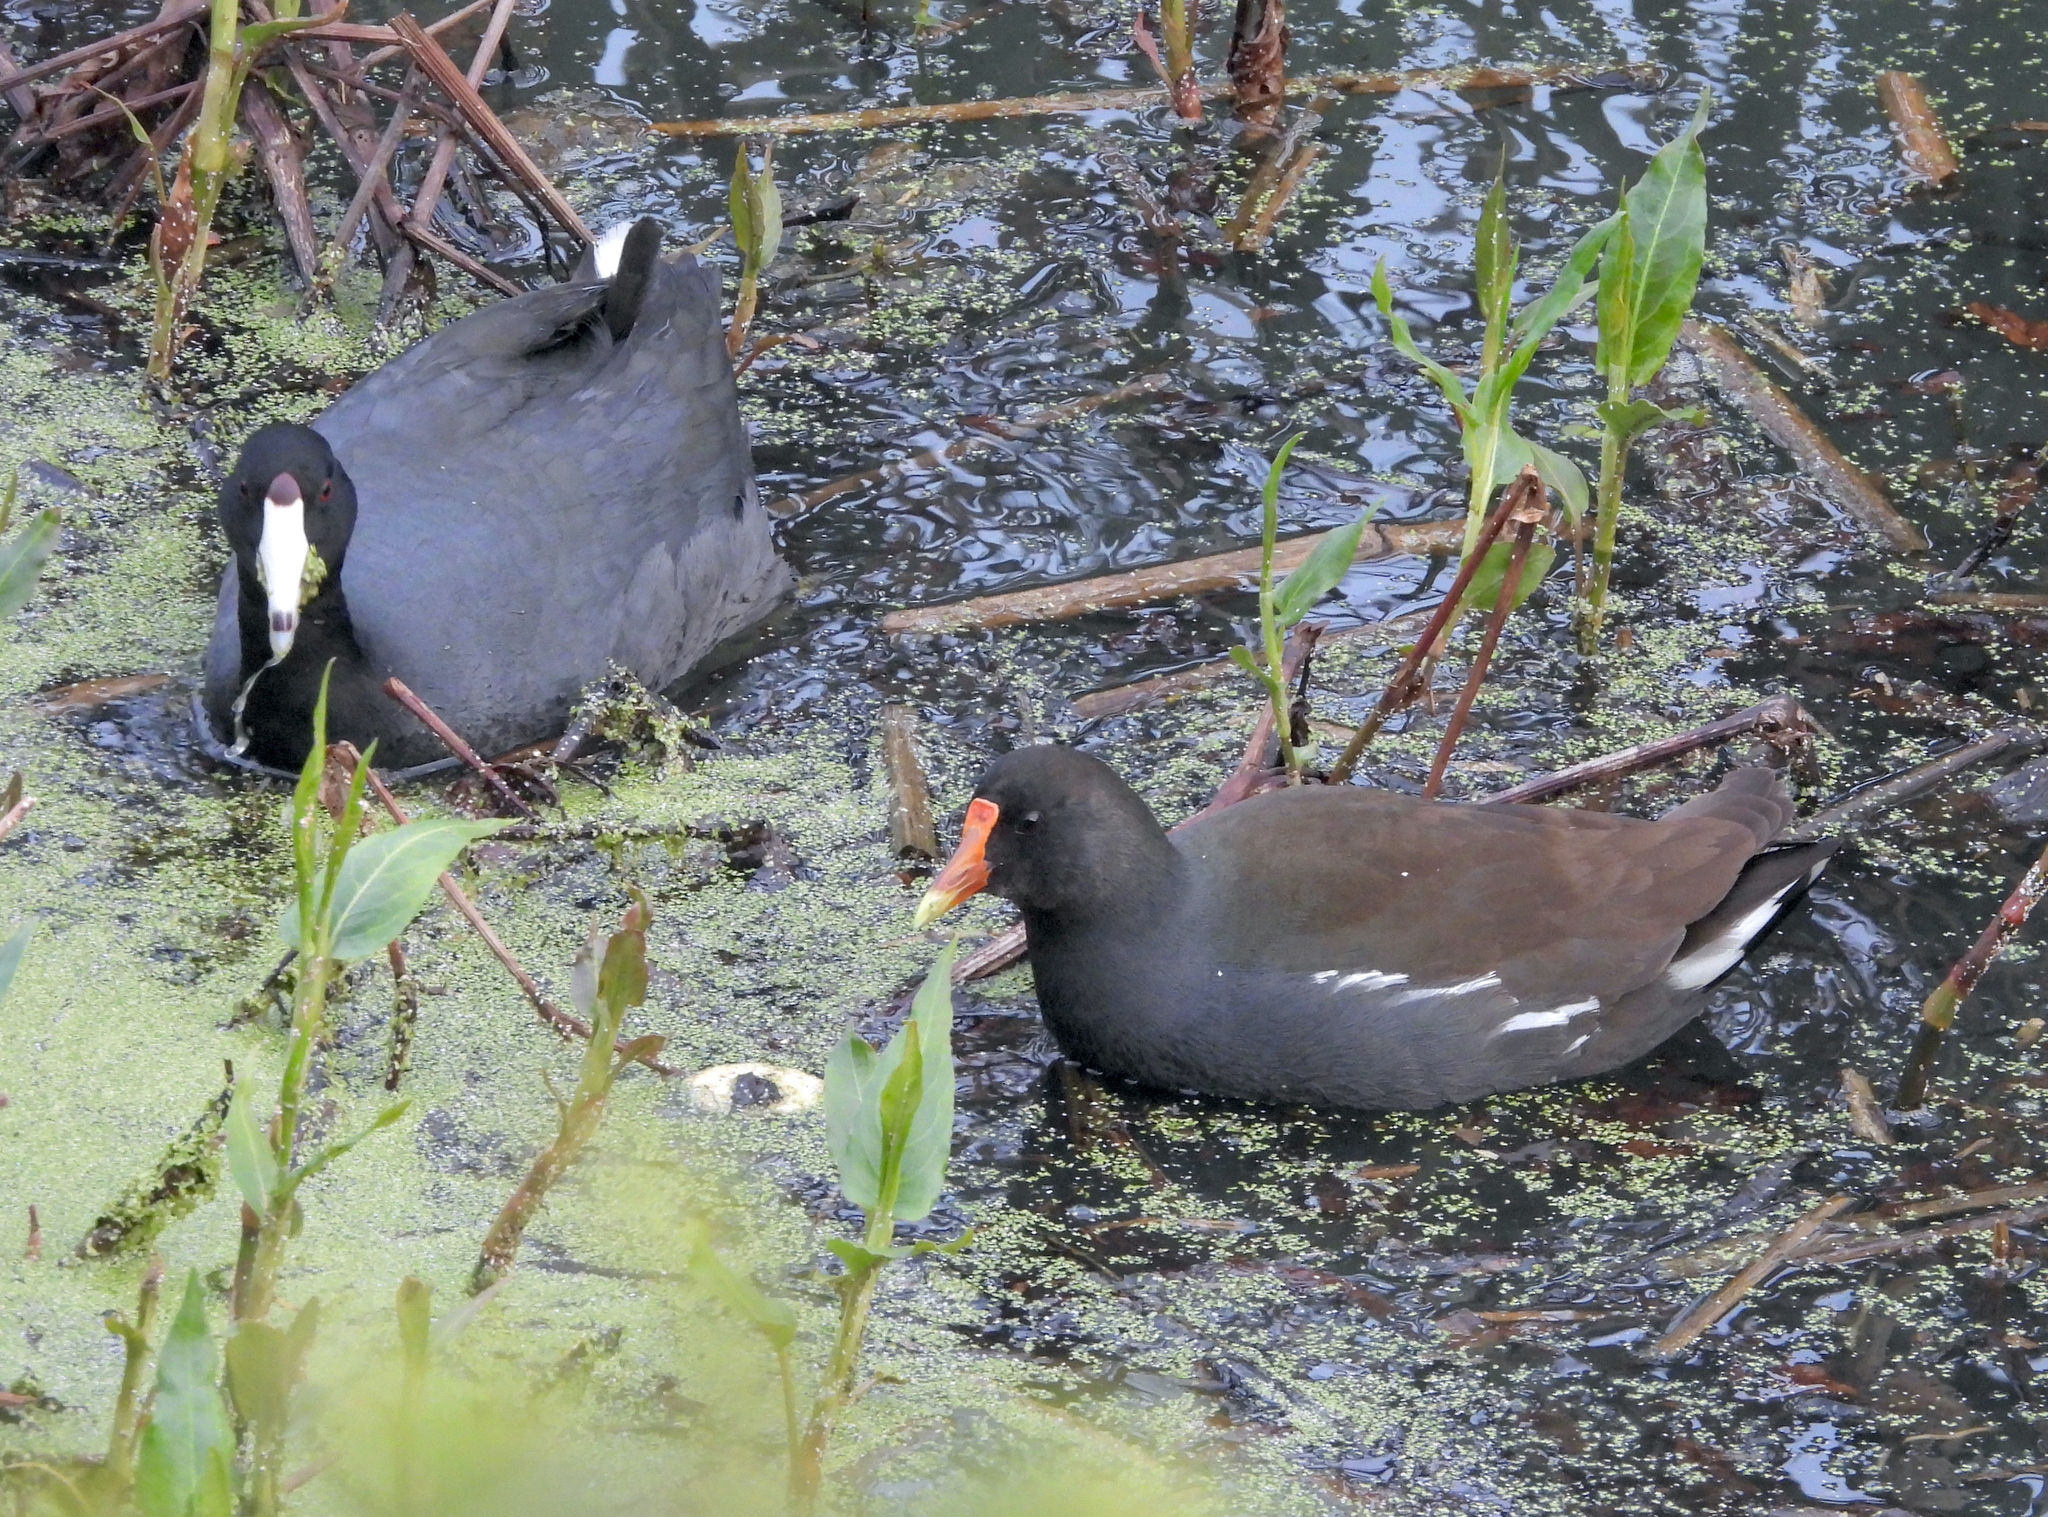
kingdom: Animalia
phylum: Chordata
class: Aves
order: Gruiformes
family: Rallidae
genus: Fulica
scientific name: Fulica americana
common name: American coot
